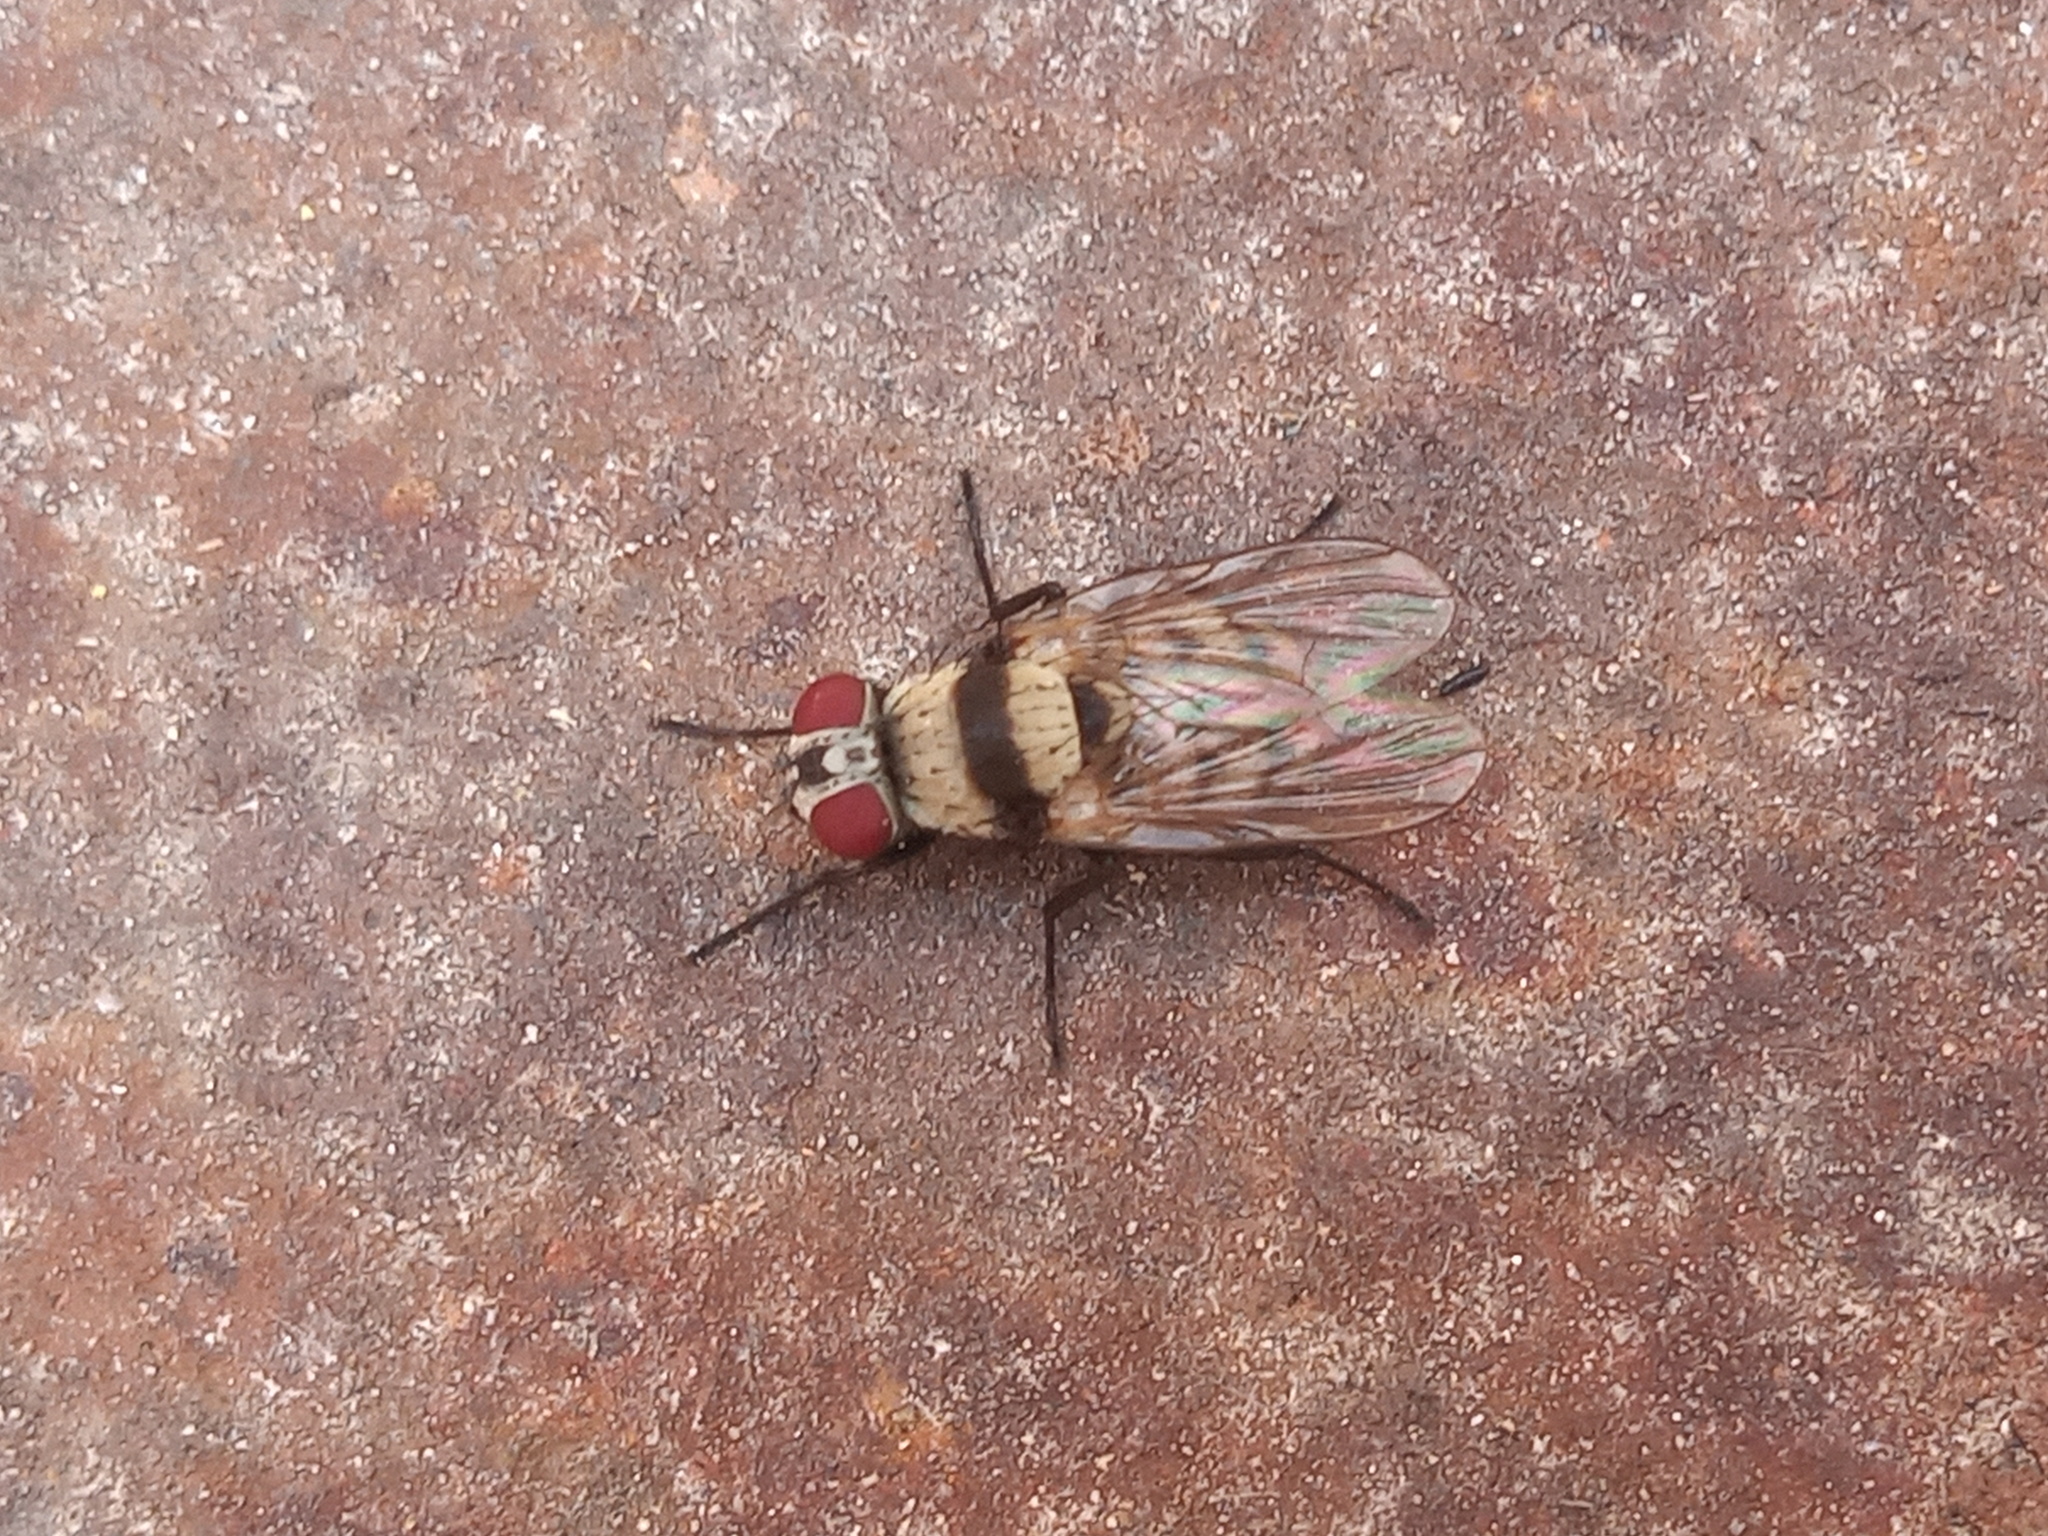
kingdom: Animalia
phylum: Arthropoda
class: Insecta
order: Diptera
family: Anthomyiidae
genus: Anthomyia
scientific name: Anthomyia illocata
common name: Fly
